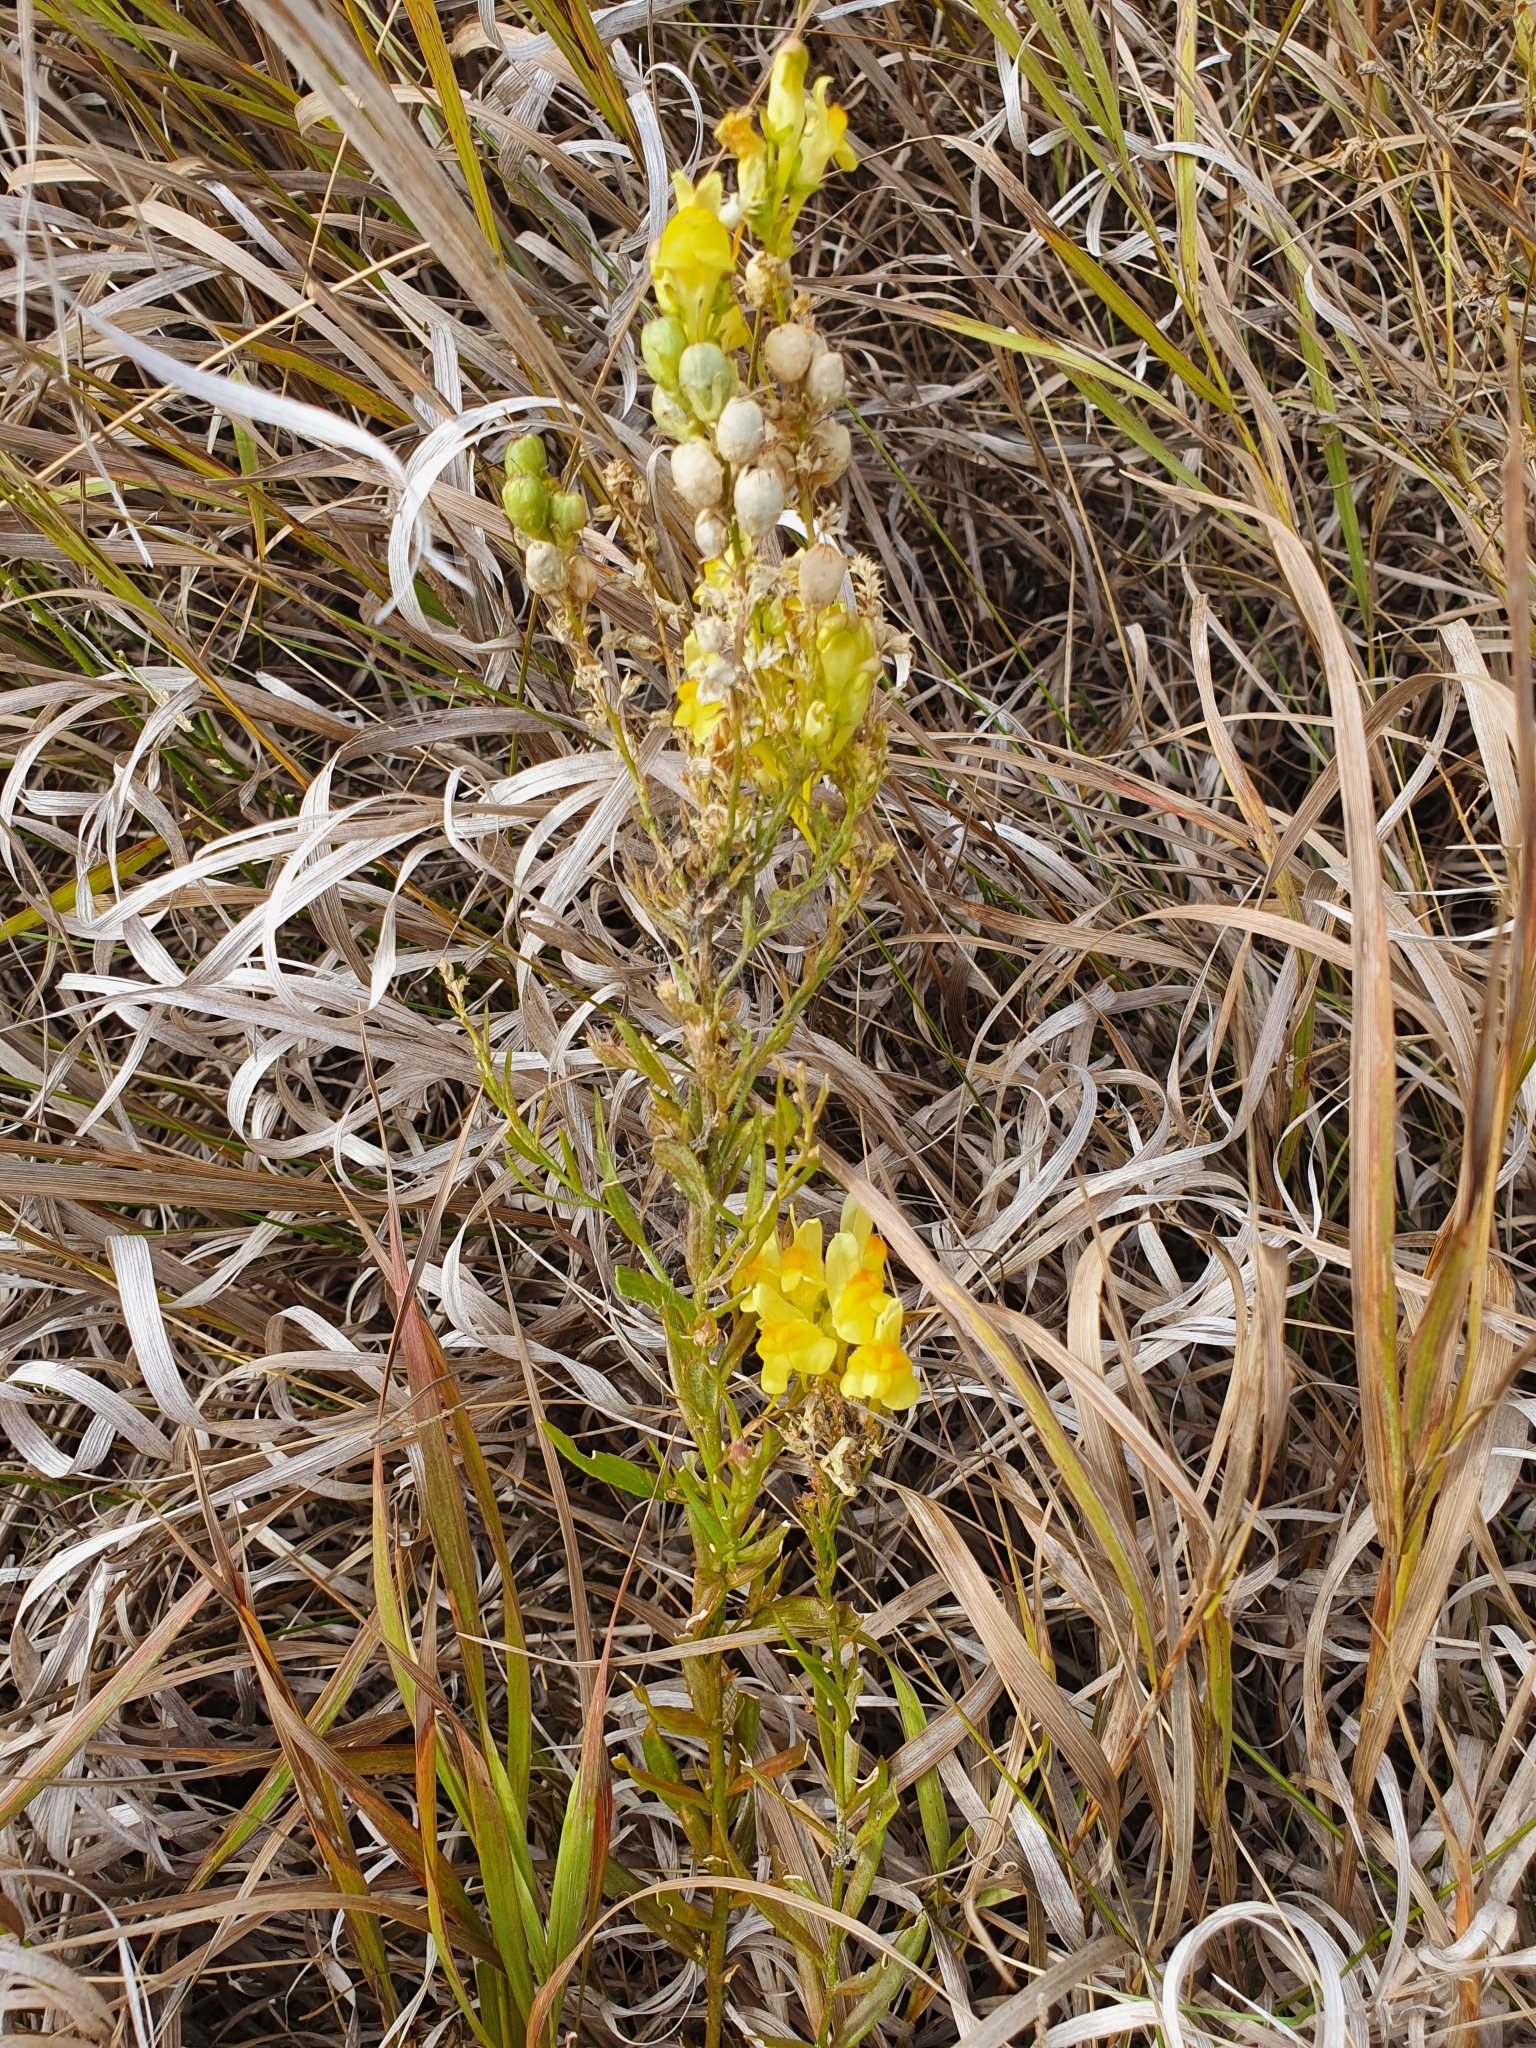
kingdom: Plantae
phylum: Tracheophyta
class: Magnoliopsida
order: Lamiales
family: Plantaginaceae
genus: Linaria
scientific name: Linaria vulgaris
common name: Butter and eggs
